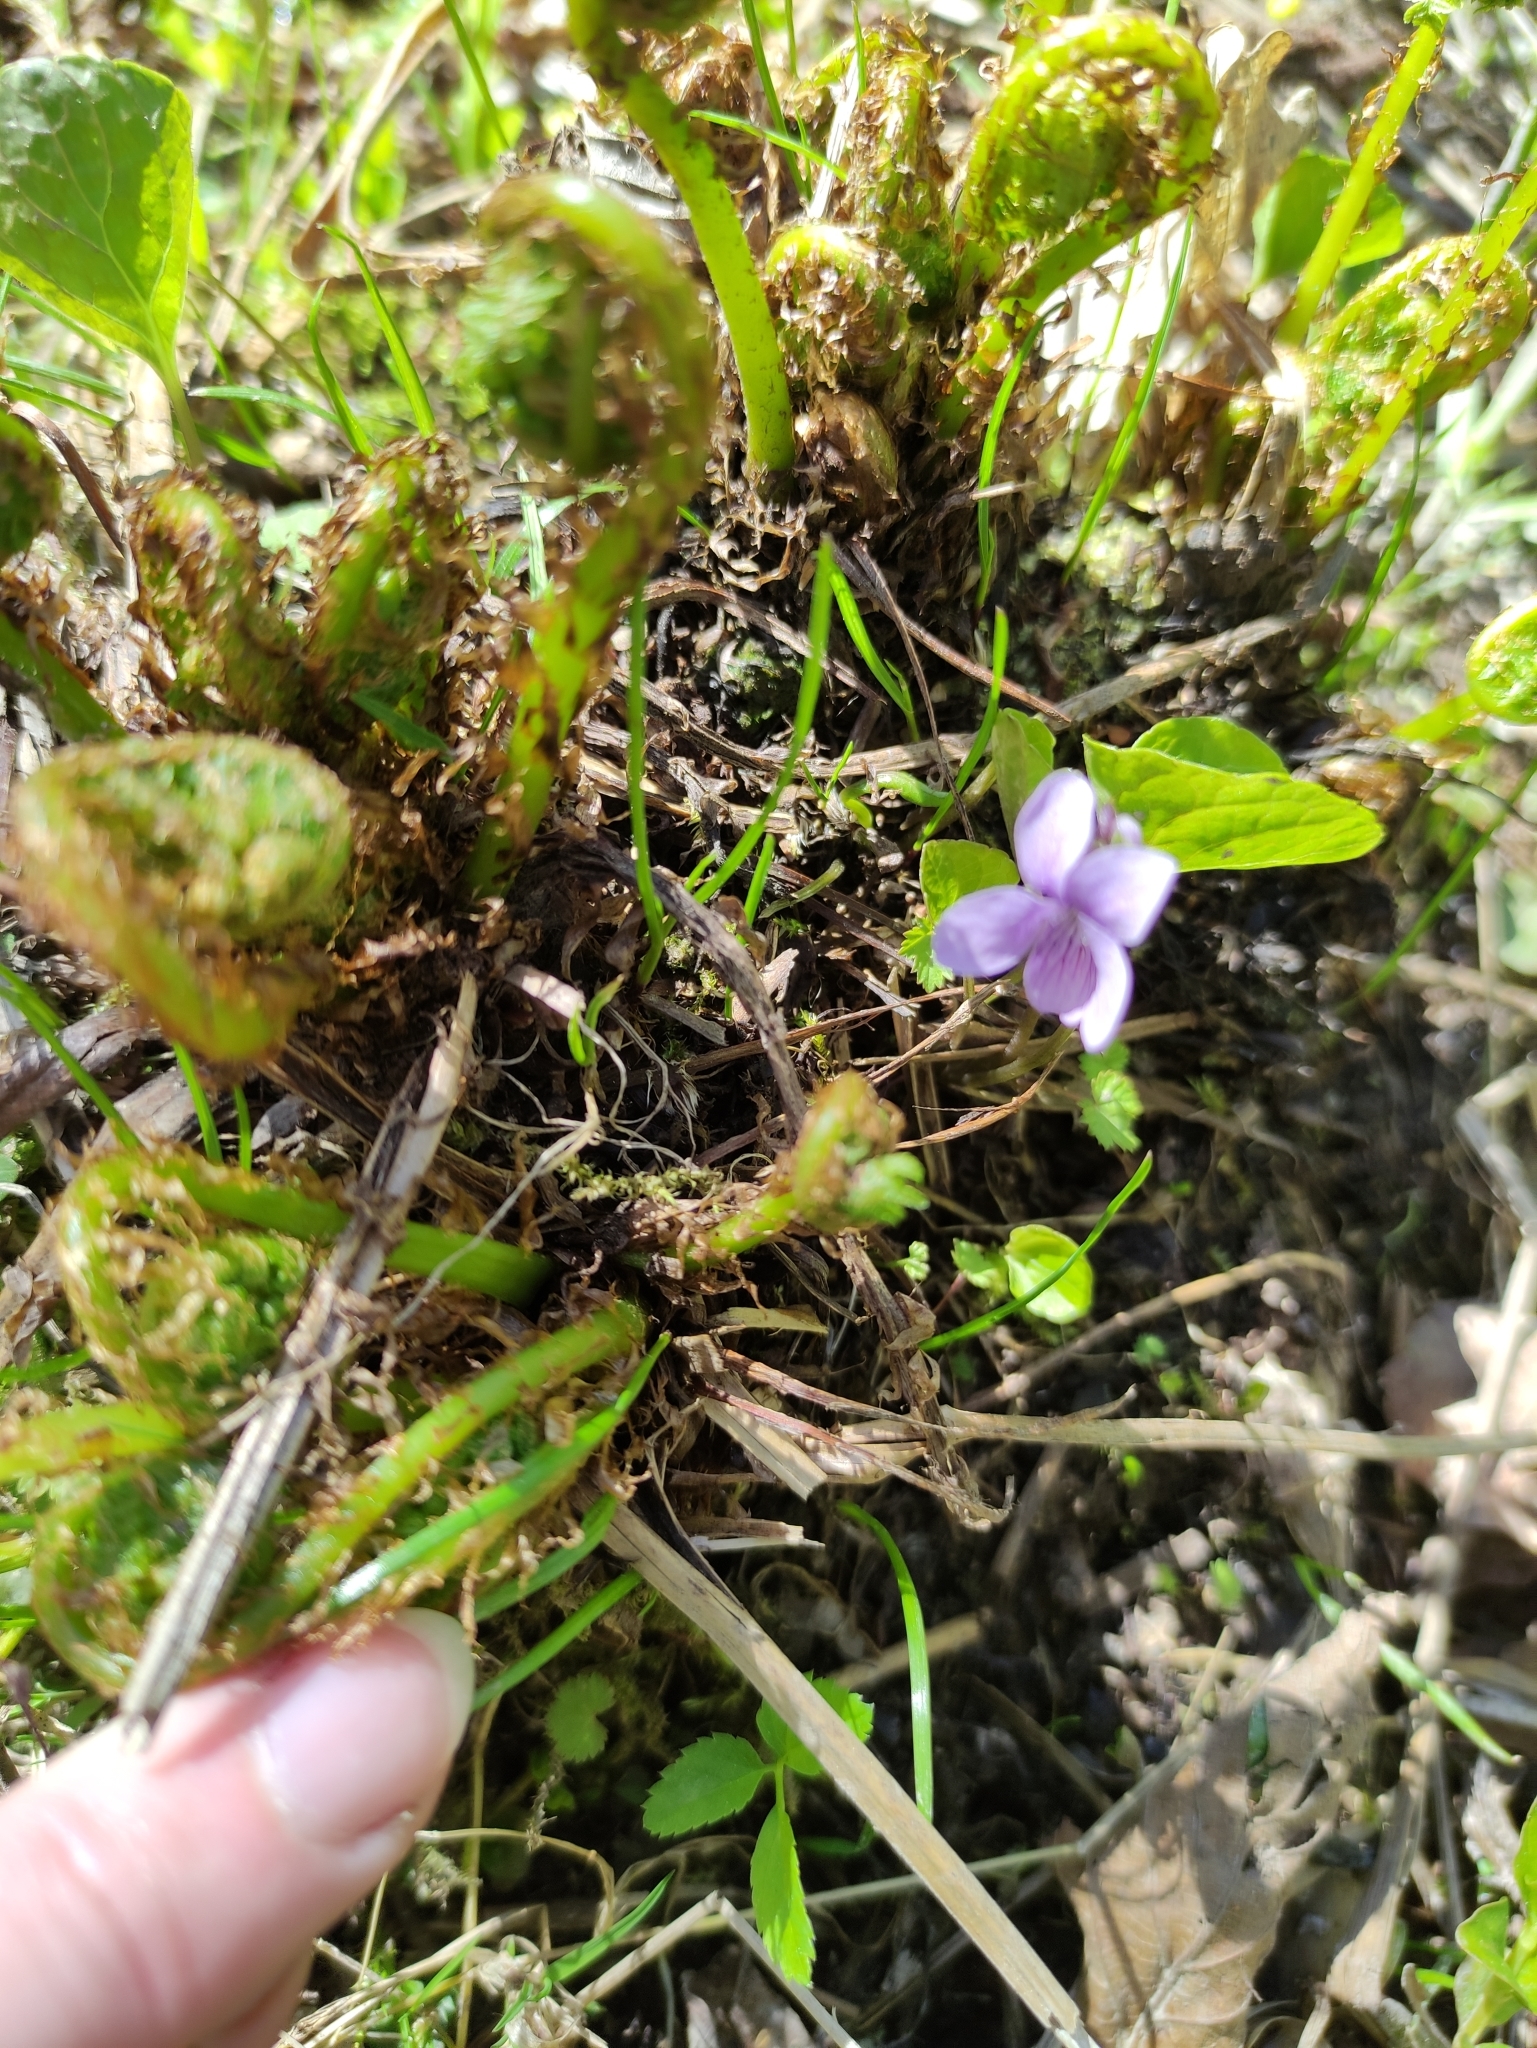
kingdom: Plantae
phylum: Tracheophyta
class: Magnoliopsida
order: Malpighiales
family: Violaceae
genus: Viola
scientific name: Viola palustris
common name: Marsh violet
